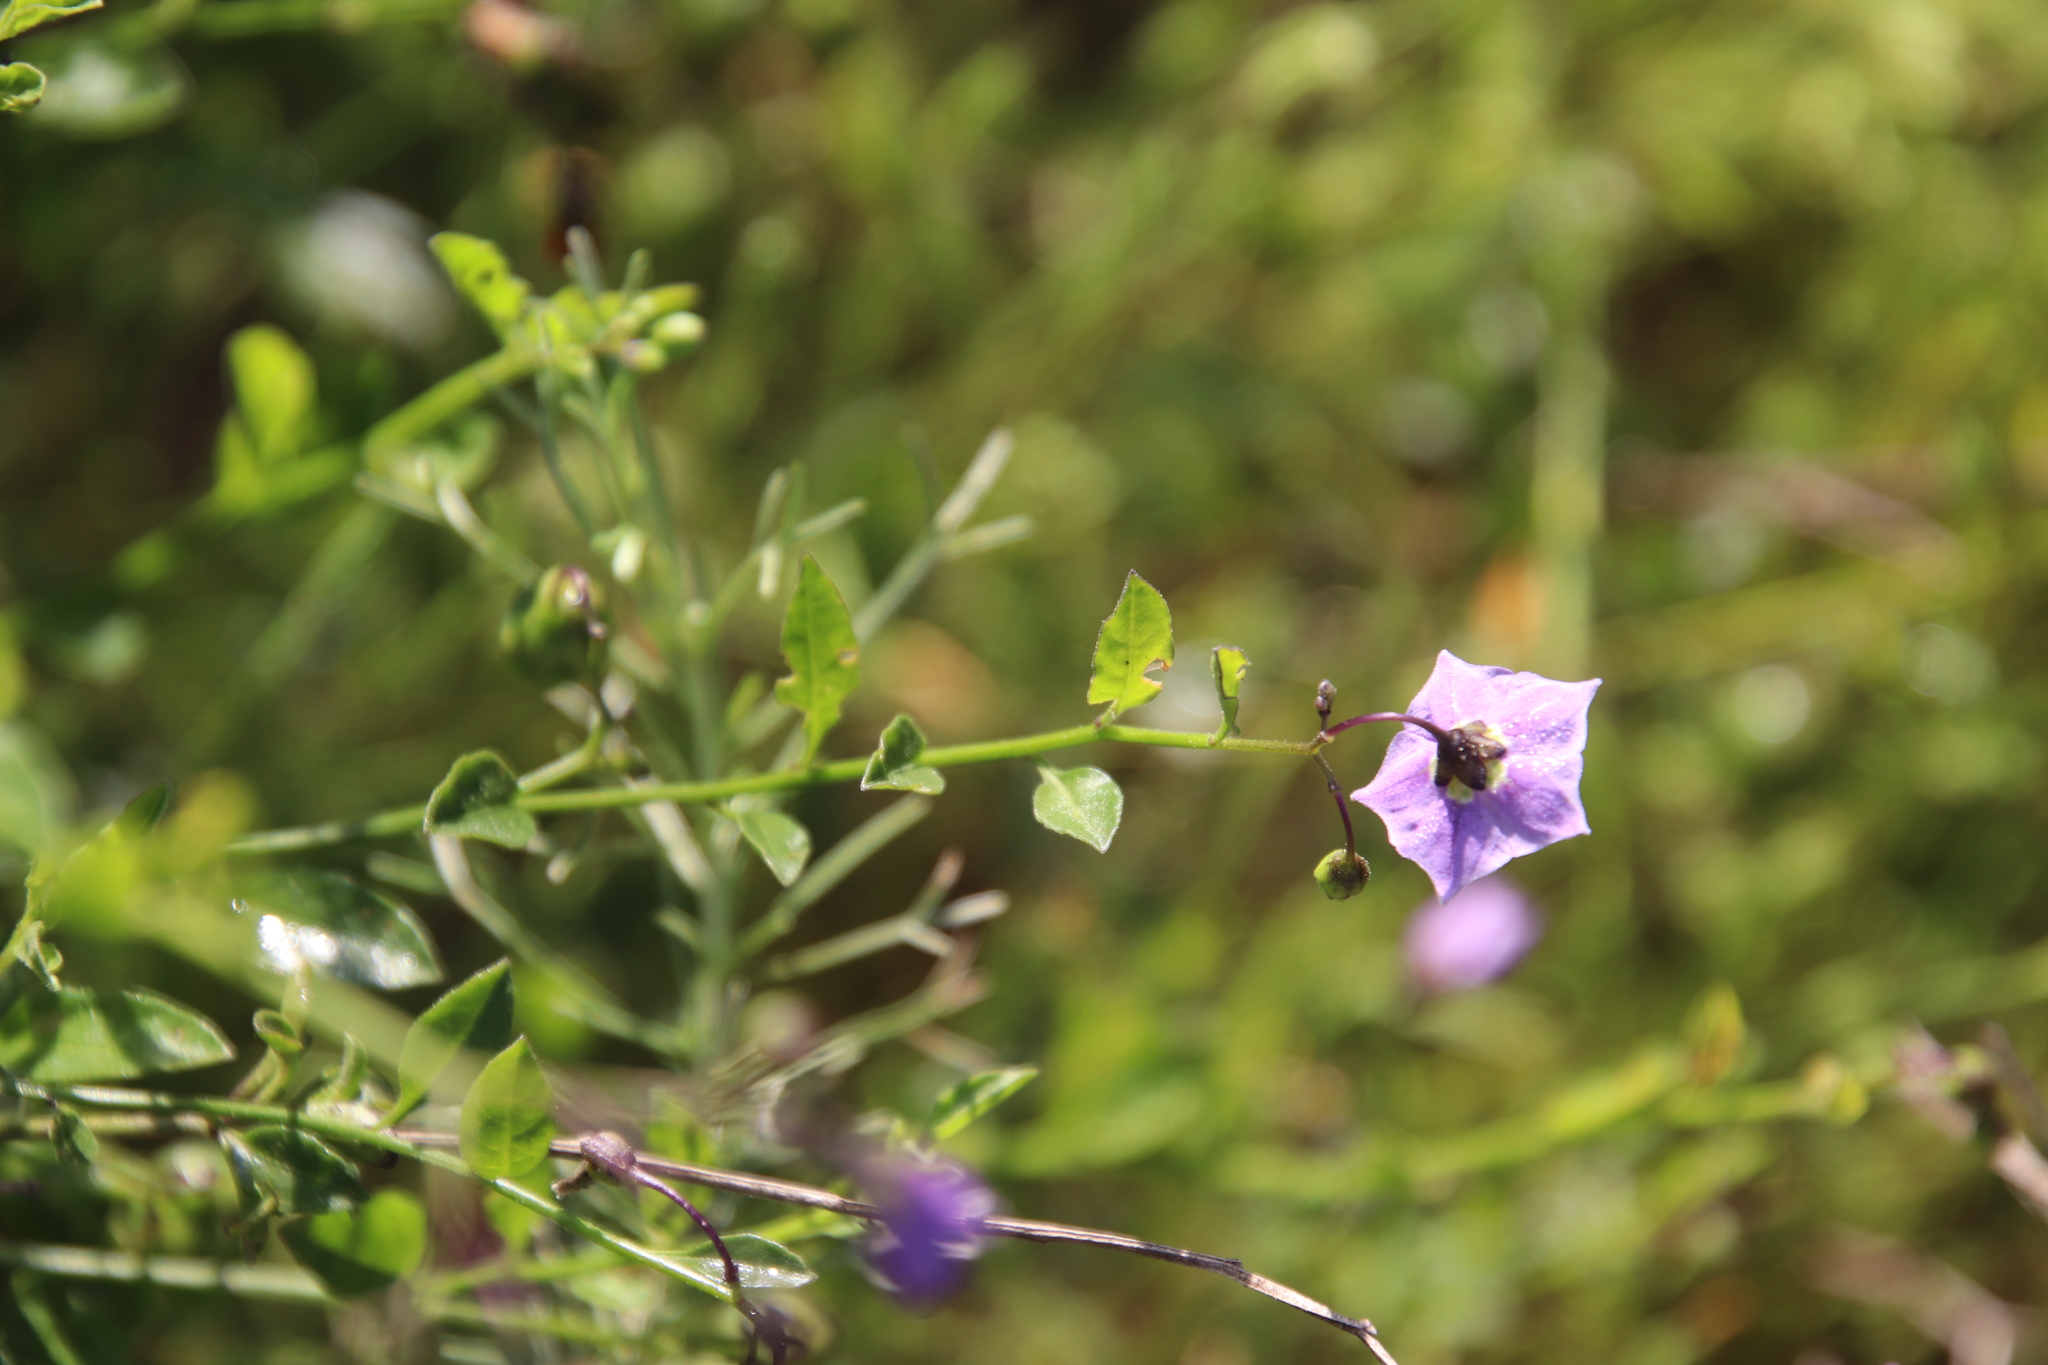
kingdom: Plantae
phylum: Tracheophyta
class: Magnoliopsida
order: Solanales
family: Solanaceae
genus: Solanum
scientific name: Solanum umbelliferum
